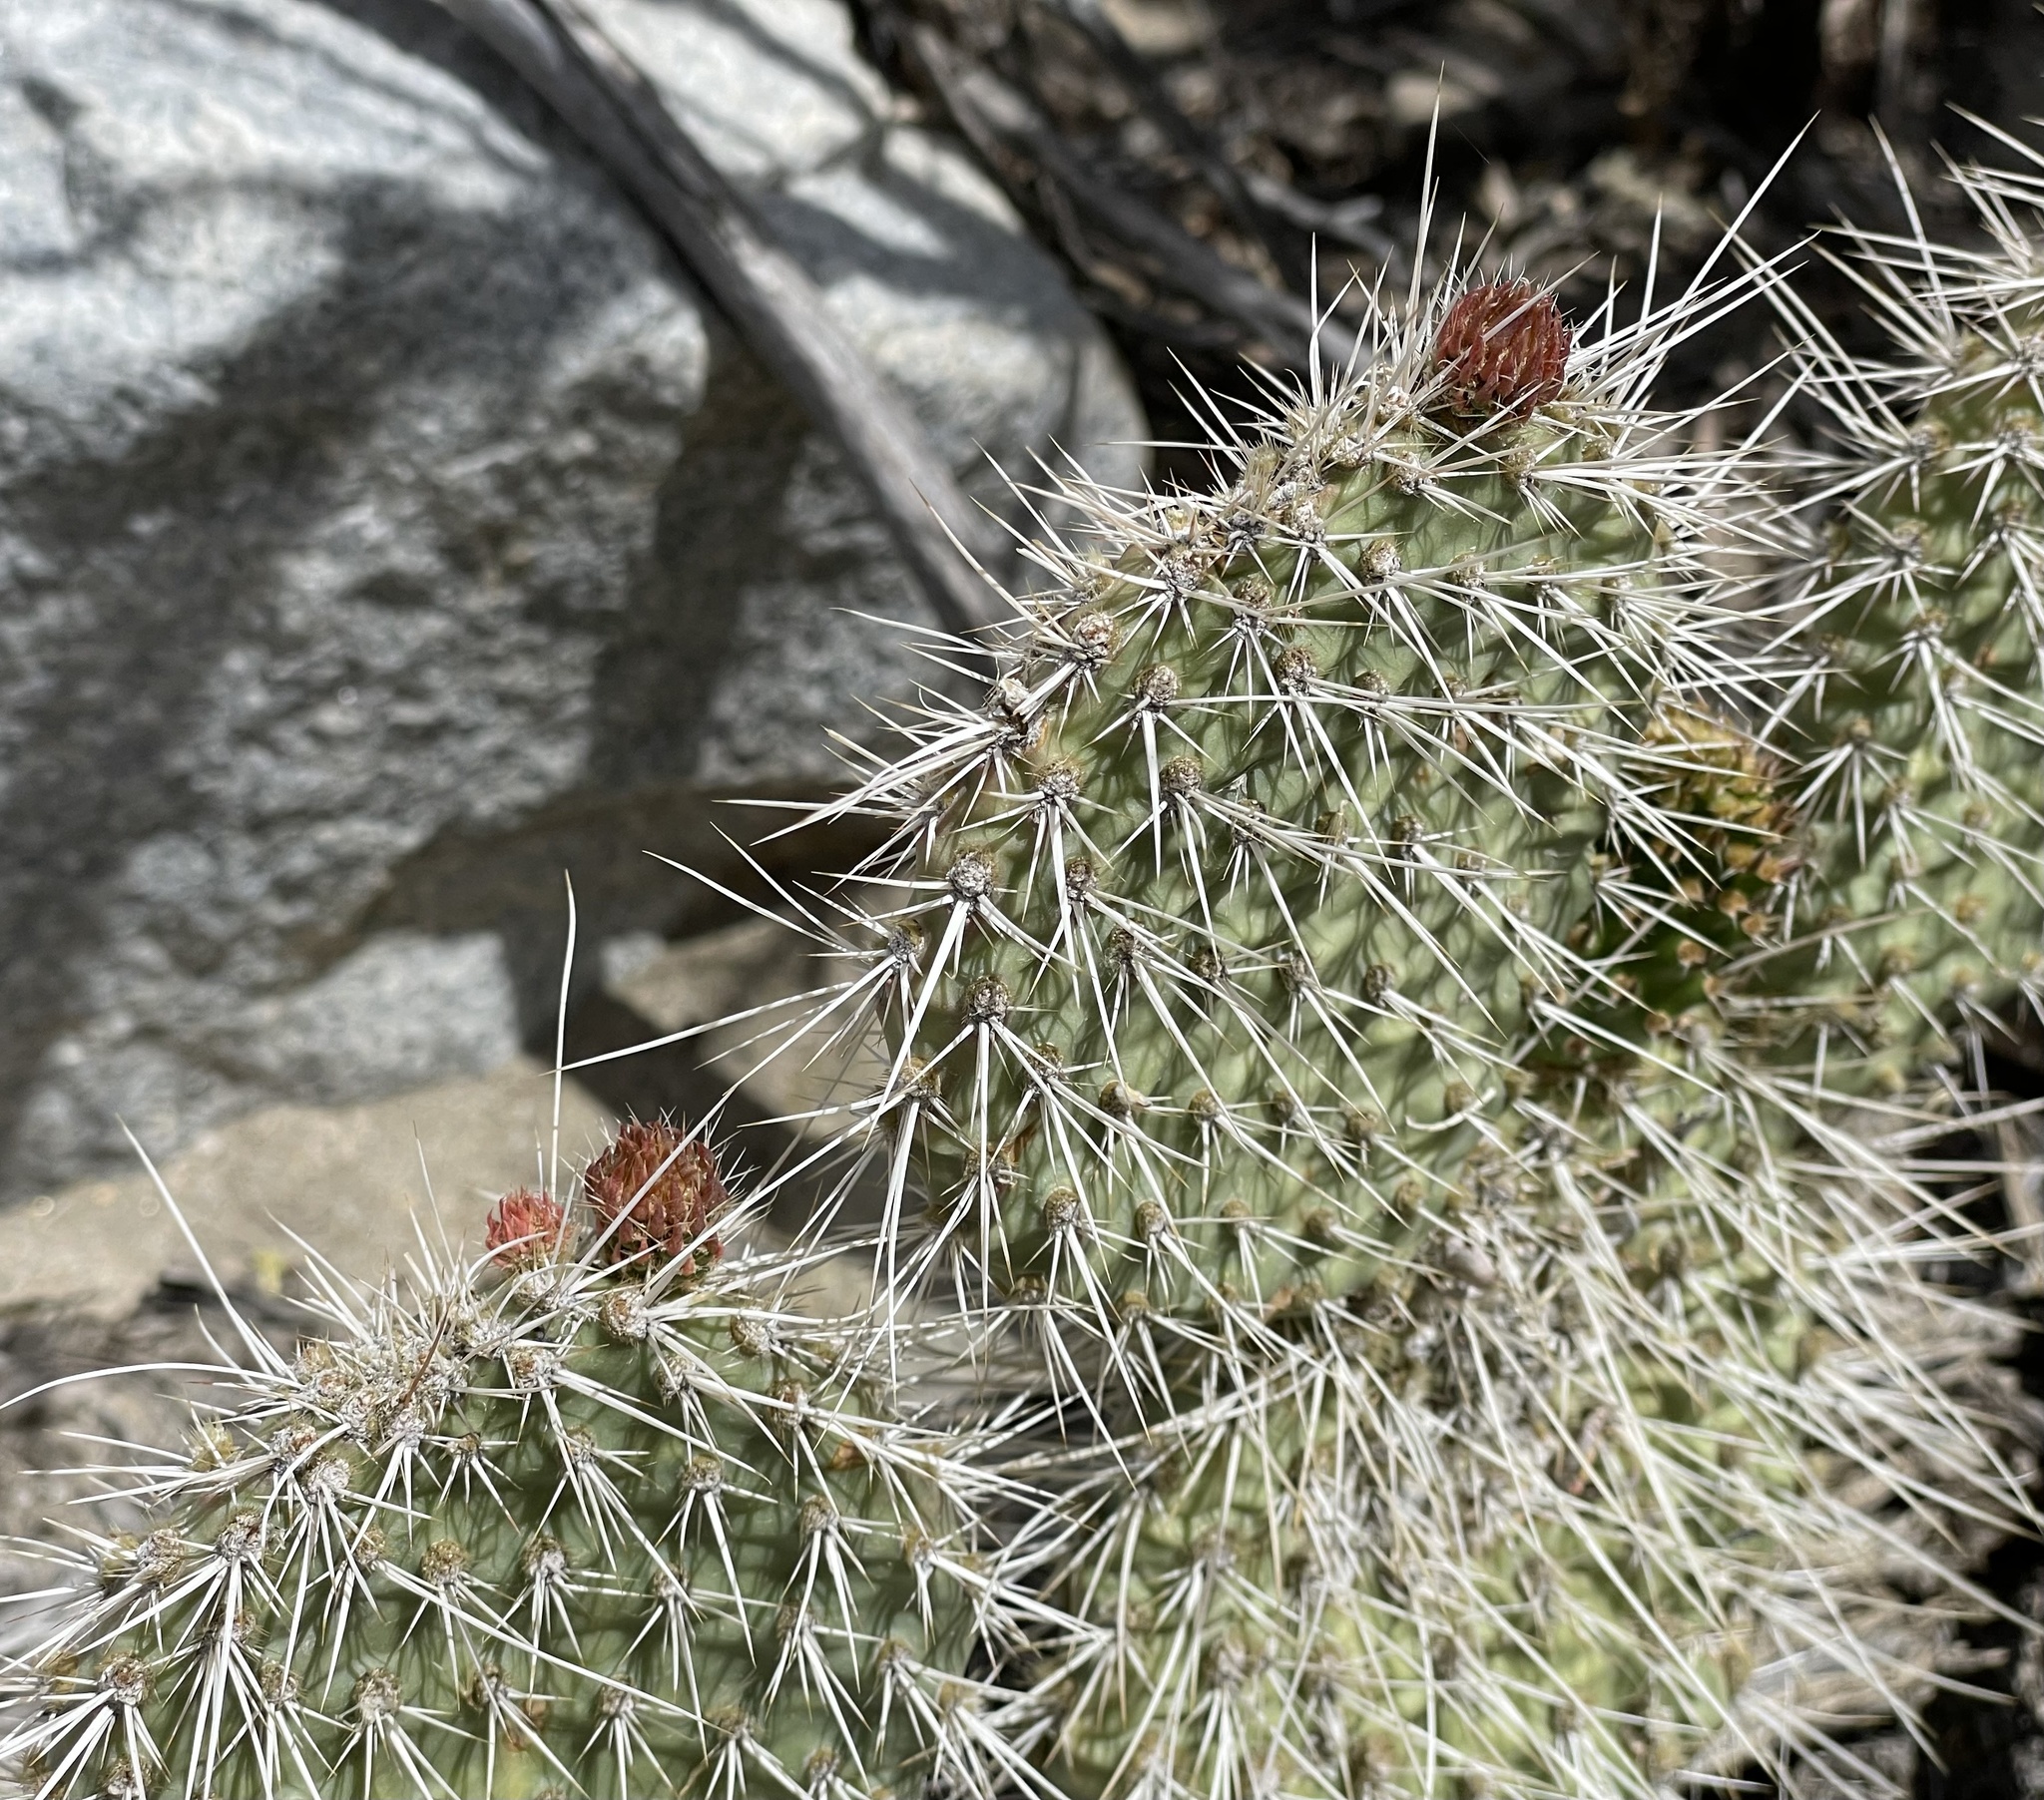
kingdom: Plantae
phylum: Tracheophyta
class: Magnoliopsida
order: Caryophyllales
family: Cactaceae
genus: Opuntia
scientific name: Opuntia polyacantha
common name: Plains prickly-pear
